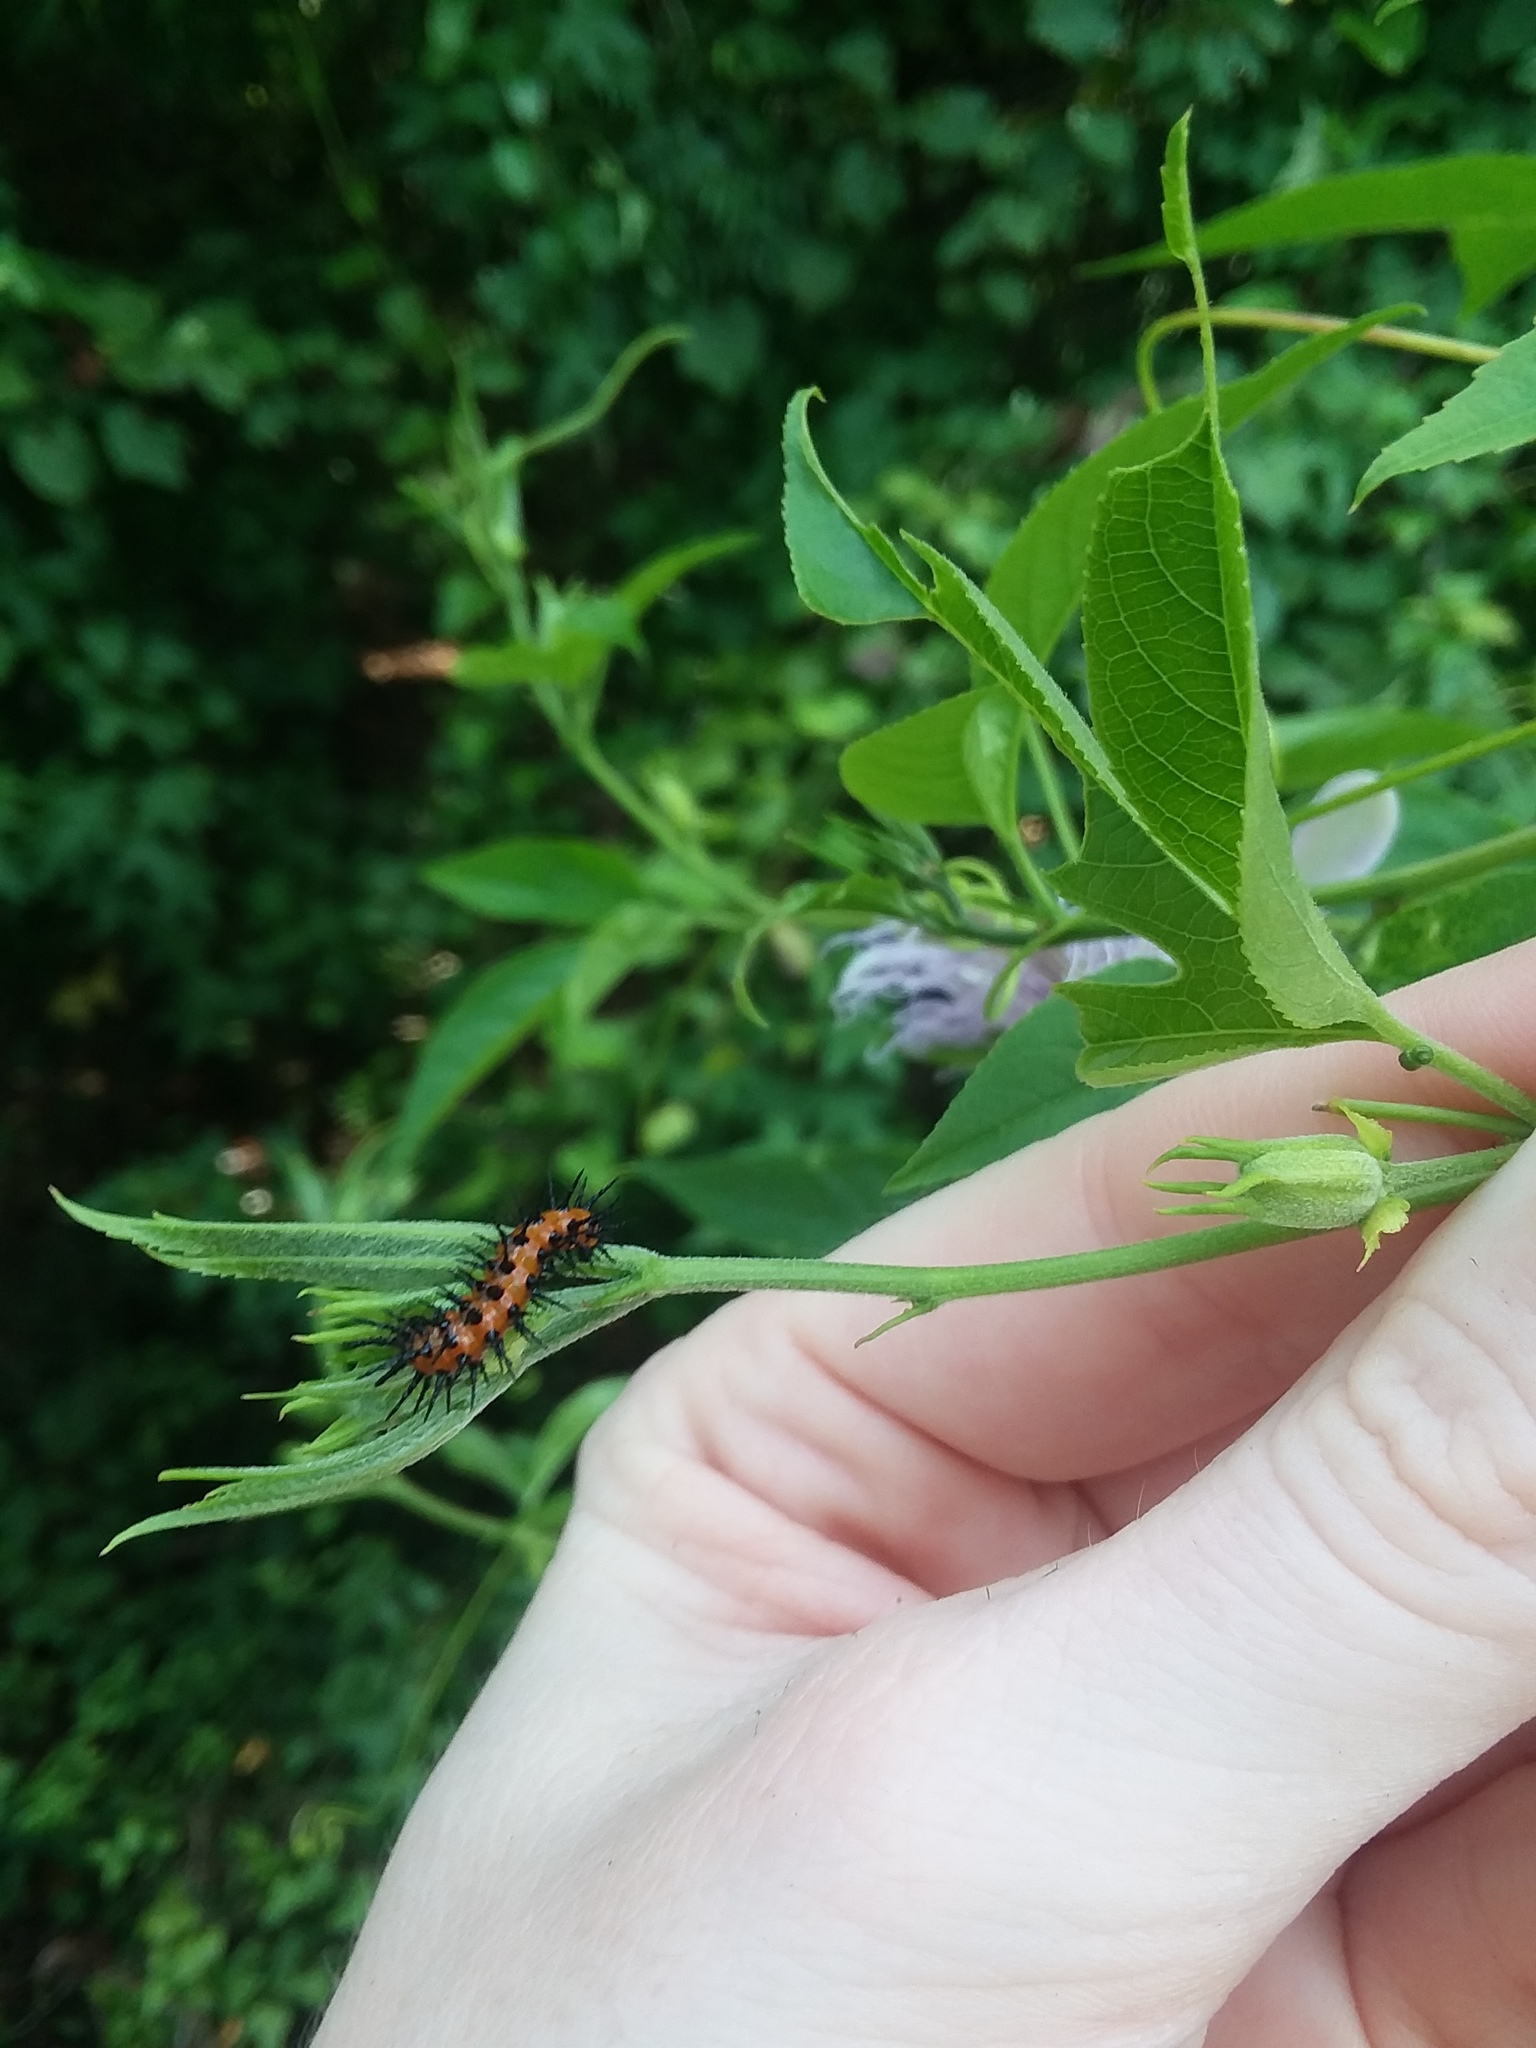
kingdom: Animalia
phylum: Arthropoda
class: Insecta
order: Lepidoptera
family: Nymphalidae
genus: Dione
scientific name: Dione vanillae
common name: Gulf fritillary
